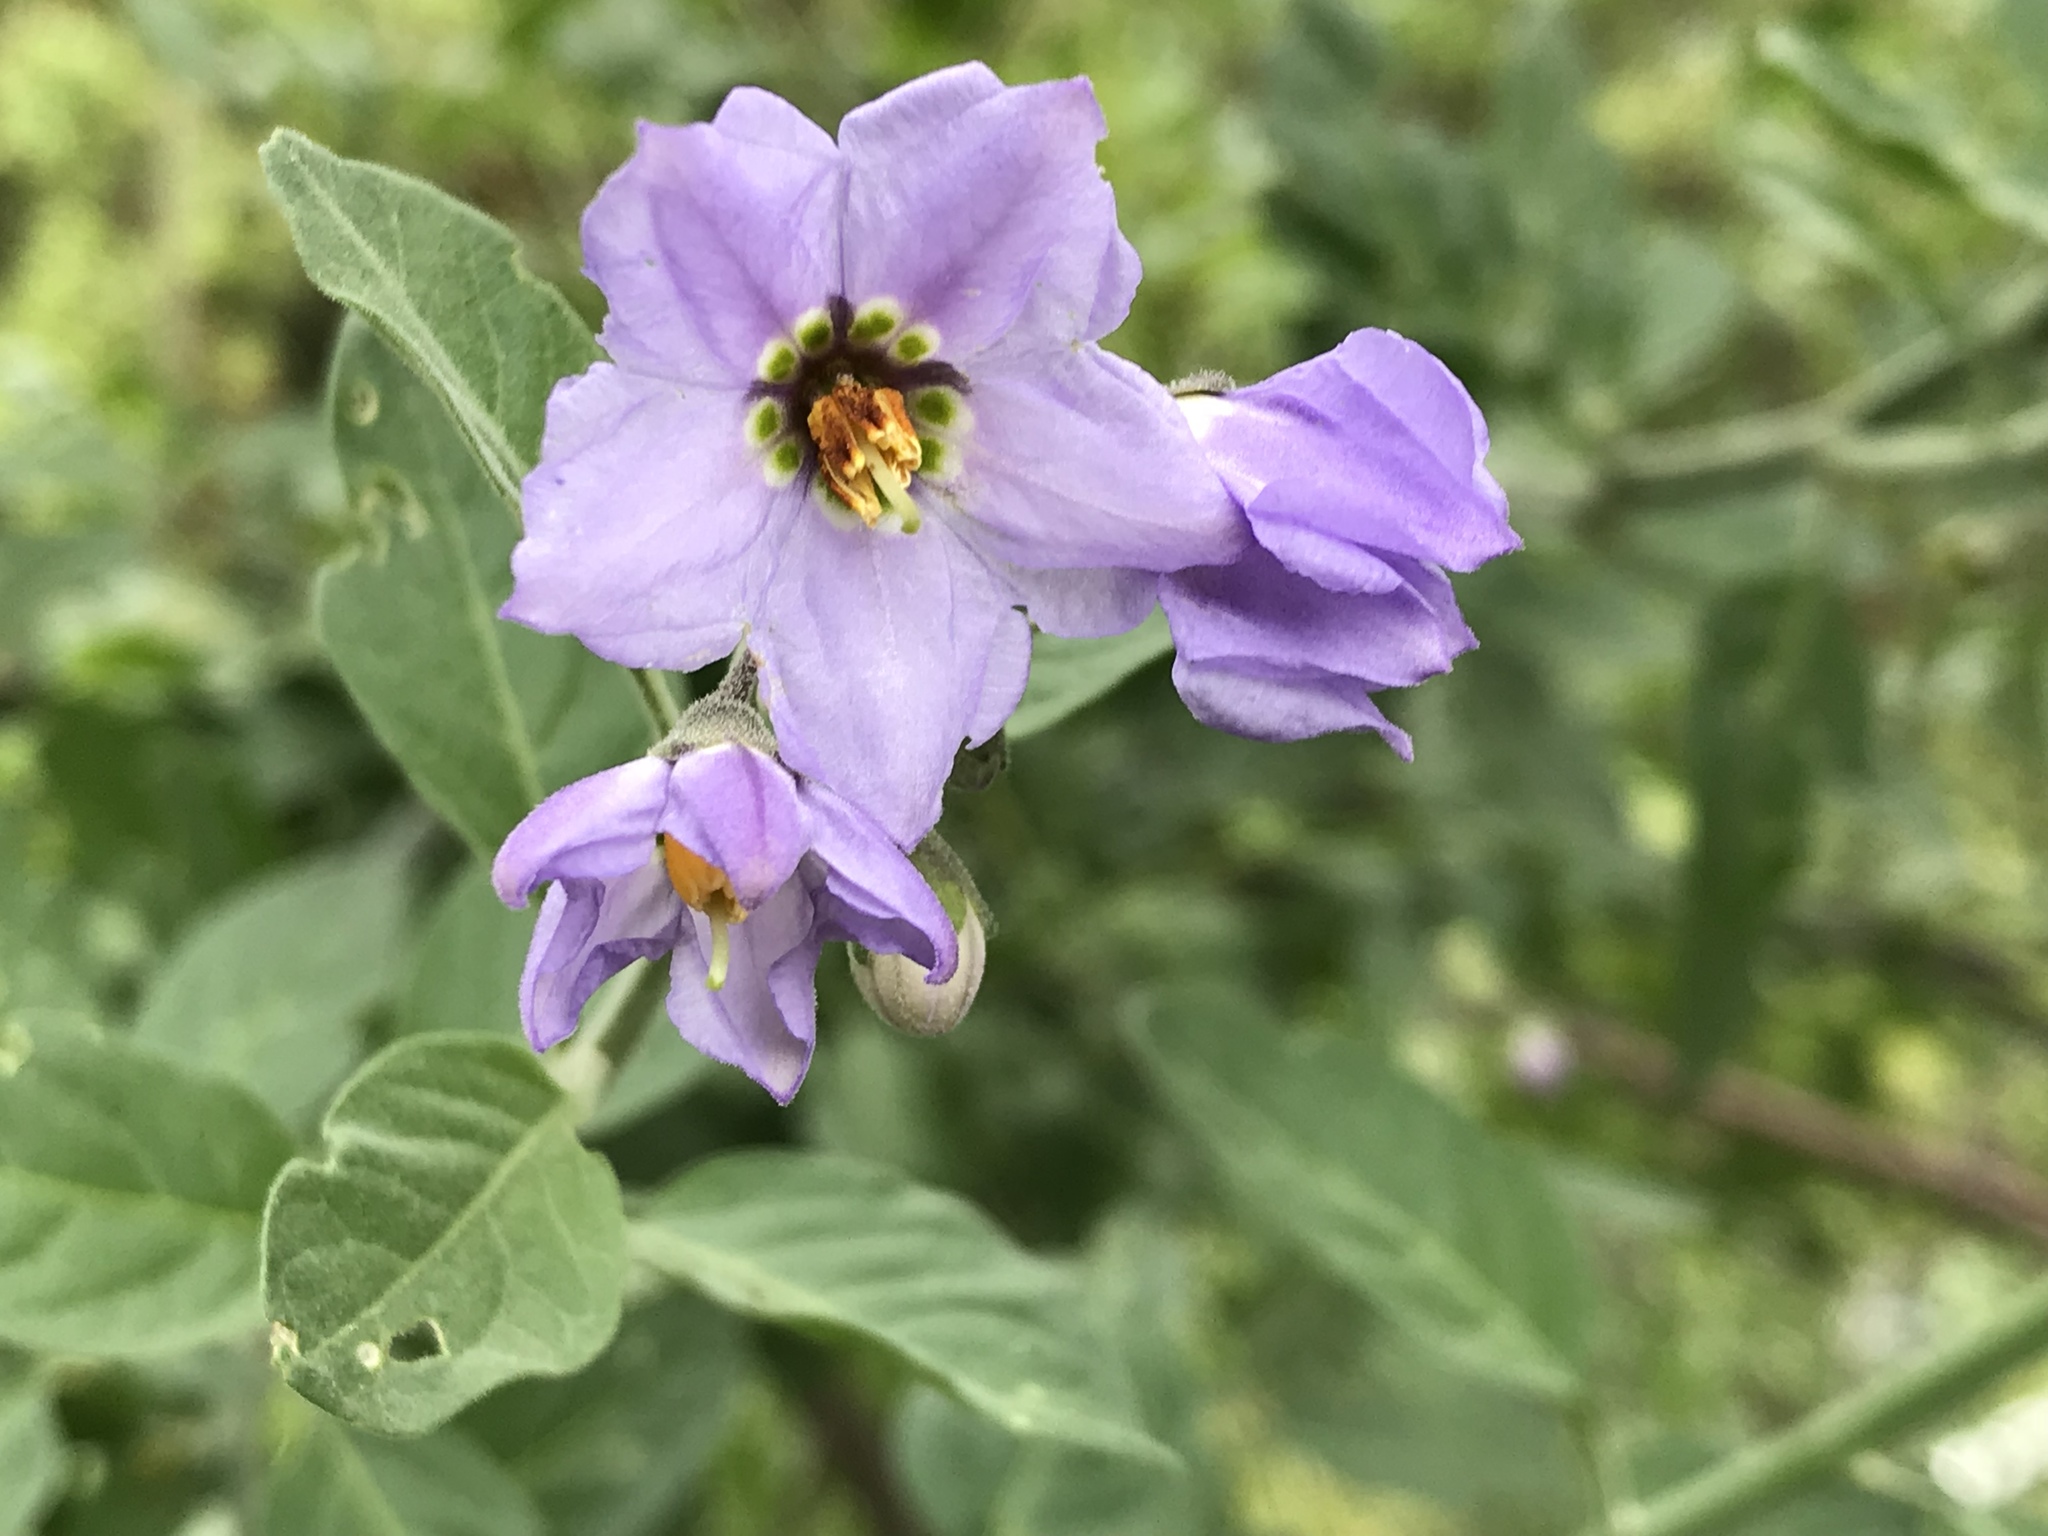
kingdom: Plantae
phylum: Tracheophyta
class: Magnoliopsida
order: Solanales
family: Solanaceae
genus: Solanum
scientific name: Solanum umbelliferum
